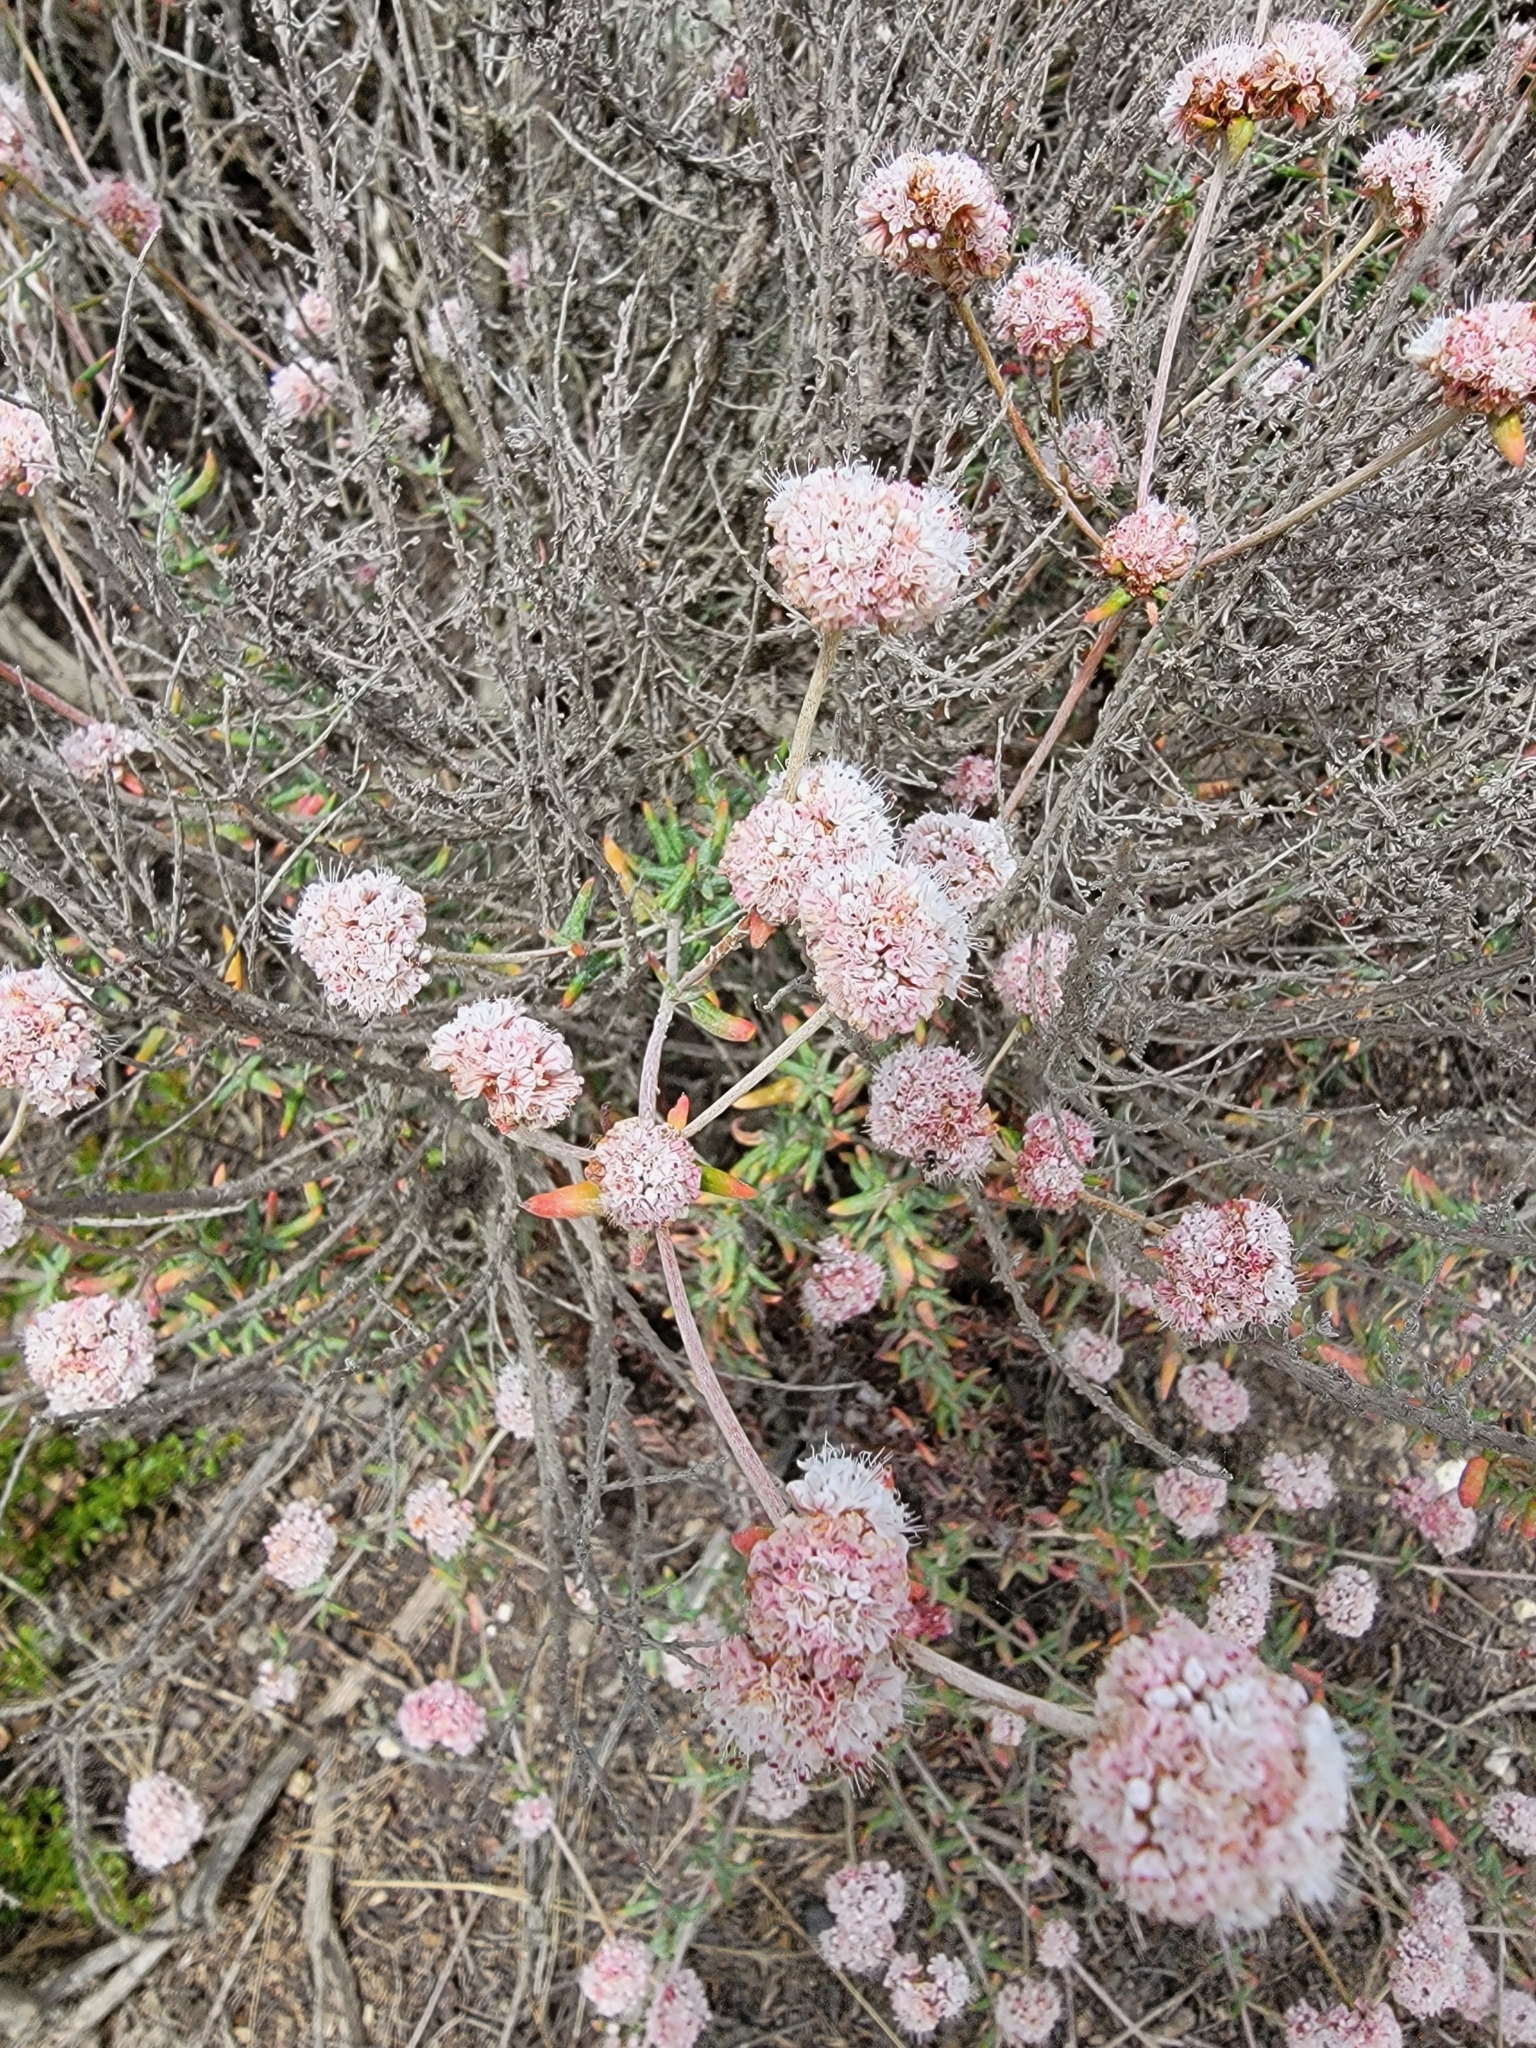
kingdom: Plantae
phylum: Tracheophyta
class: Magnoliopsida
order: Caryophyllales
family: Polygonaceae
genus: Eriogonum
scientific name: Eriogonum parvifolium
